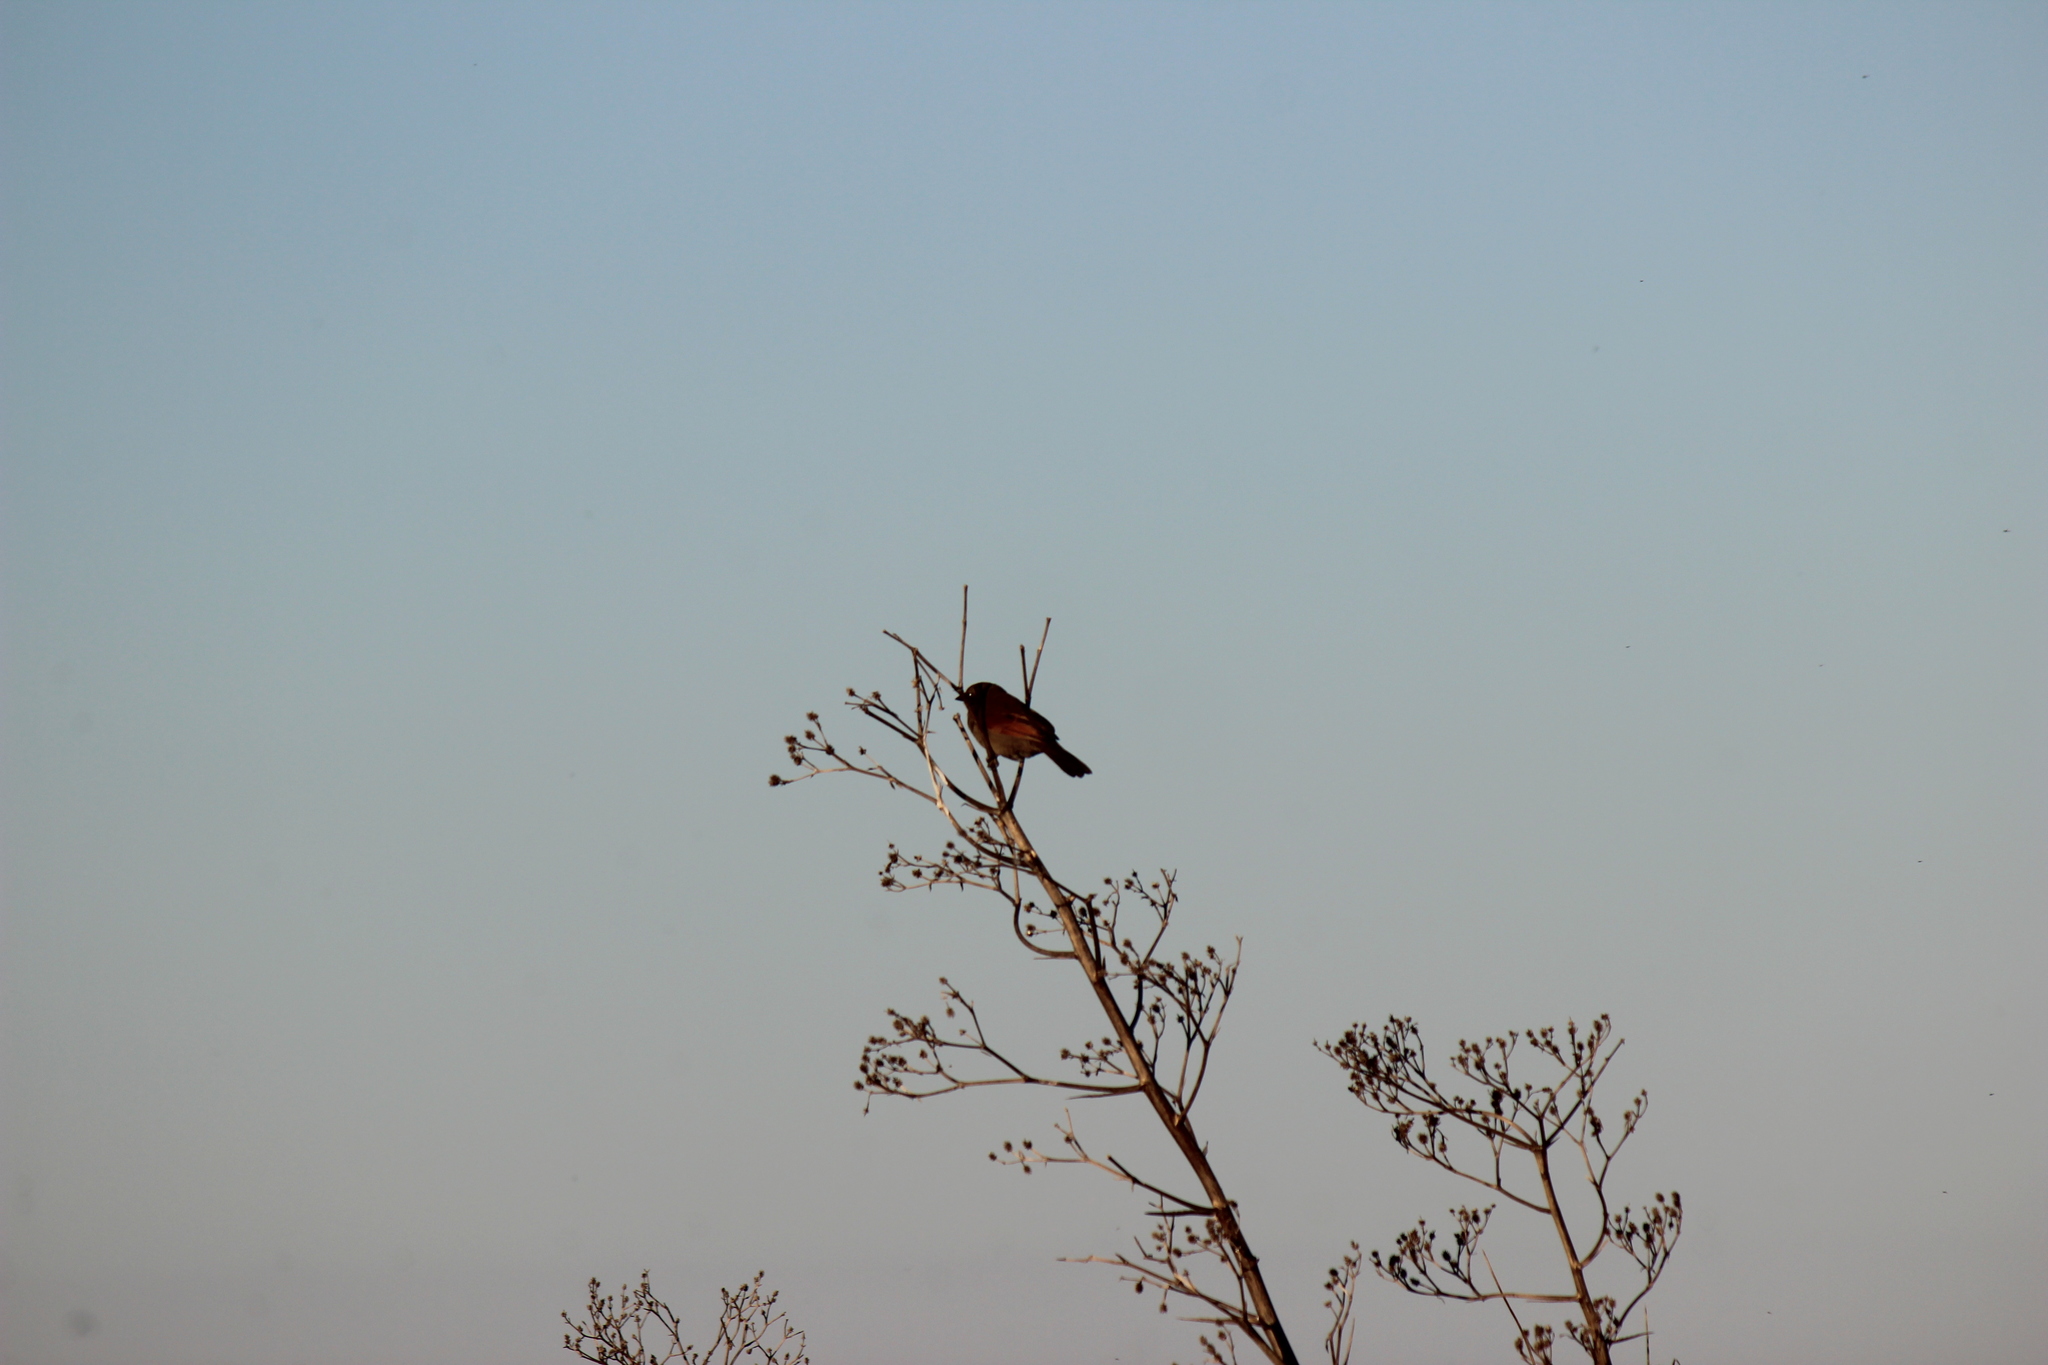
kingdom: Animalia
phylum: Chordata
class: Aves
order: Passeriformes
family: Icteridae
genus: Agelaioides
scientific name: Agelaioides badius
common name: Baywing
